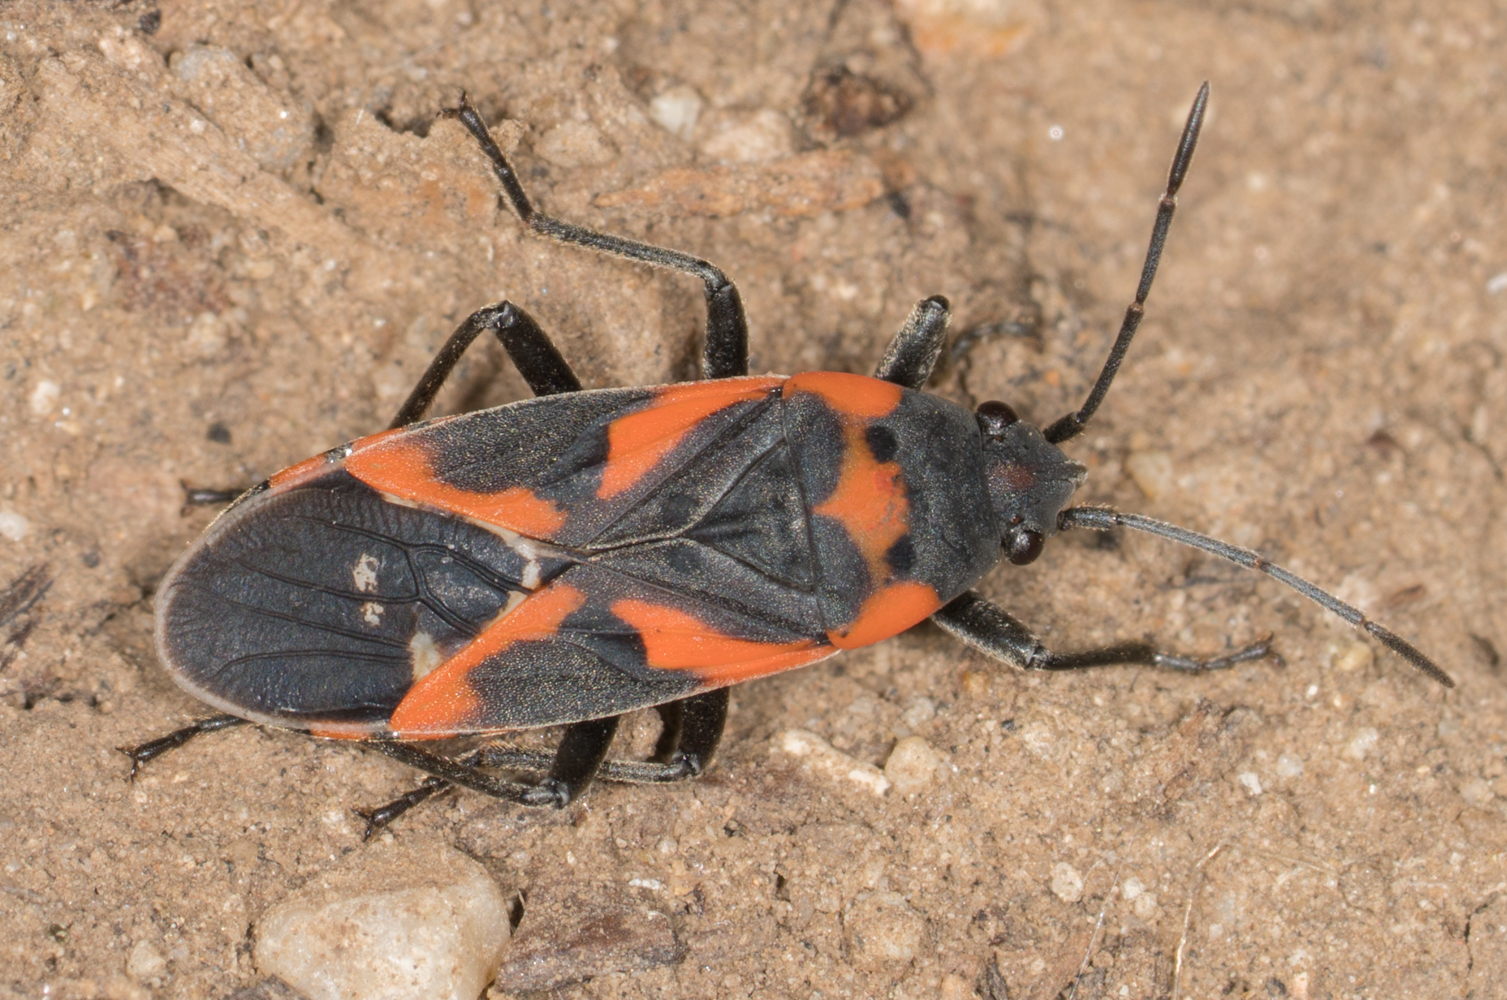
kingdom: Animalia
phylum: Arthropoda
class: Insecta
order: Hemiptera
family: Lygaeidae
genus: Lygaeus
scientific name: Lygaeus kalmii
